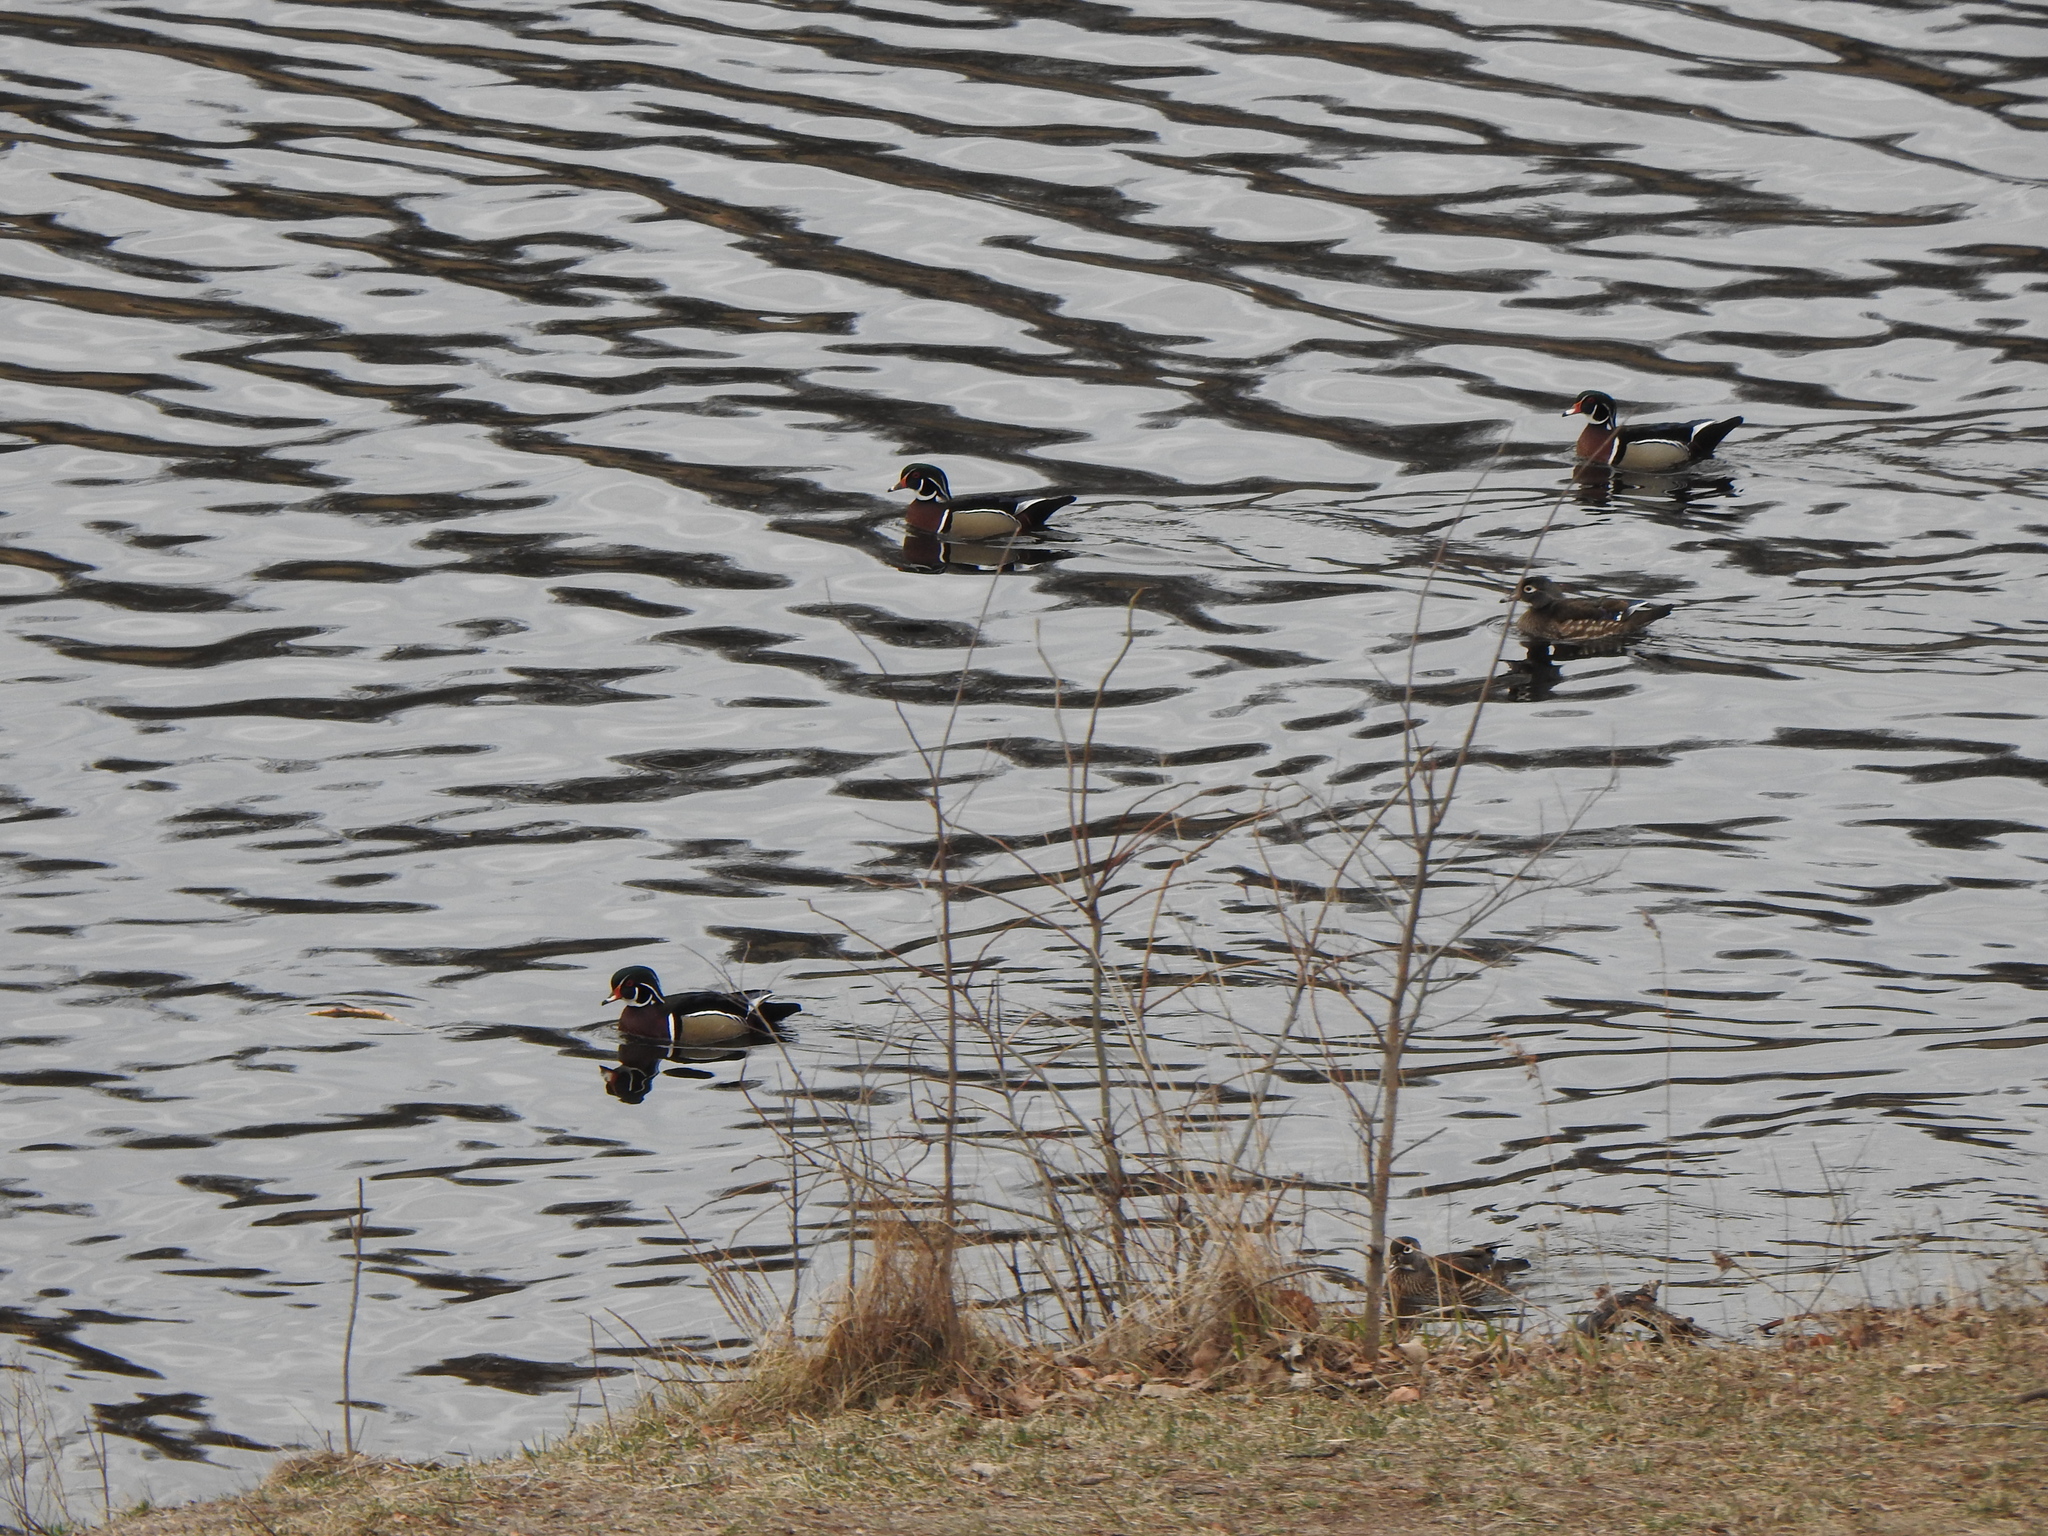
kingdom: Animalia
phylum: Chordata
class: Aves
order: Anseriformes
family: Anatidae
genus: Aix
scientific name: Aix sponsa
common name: Wood duck
